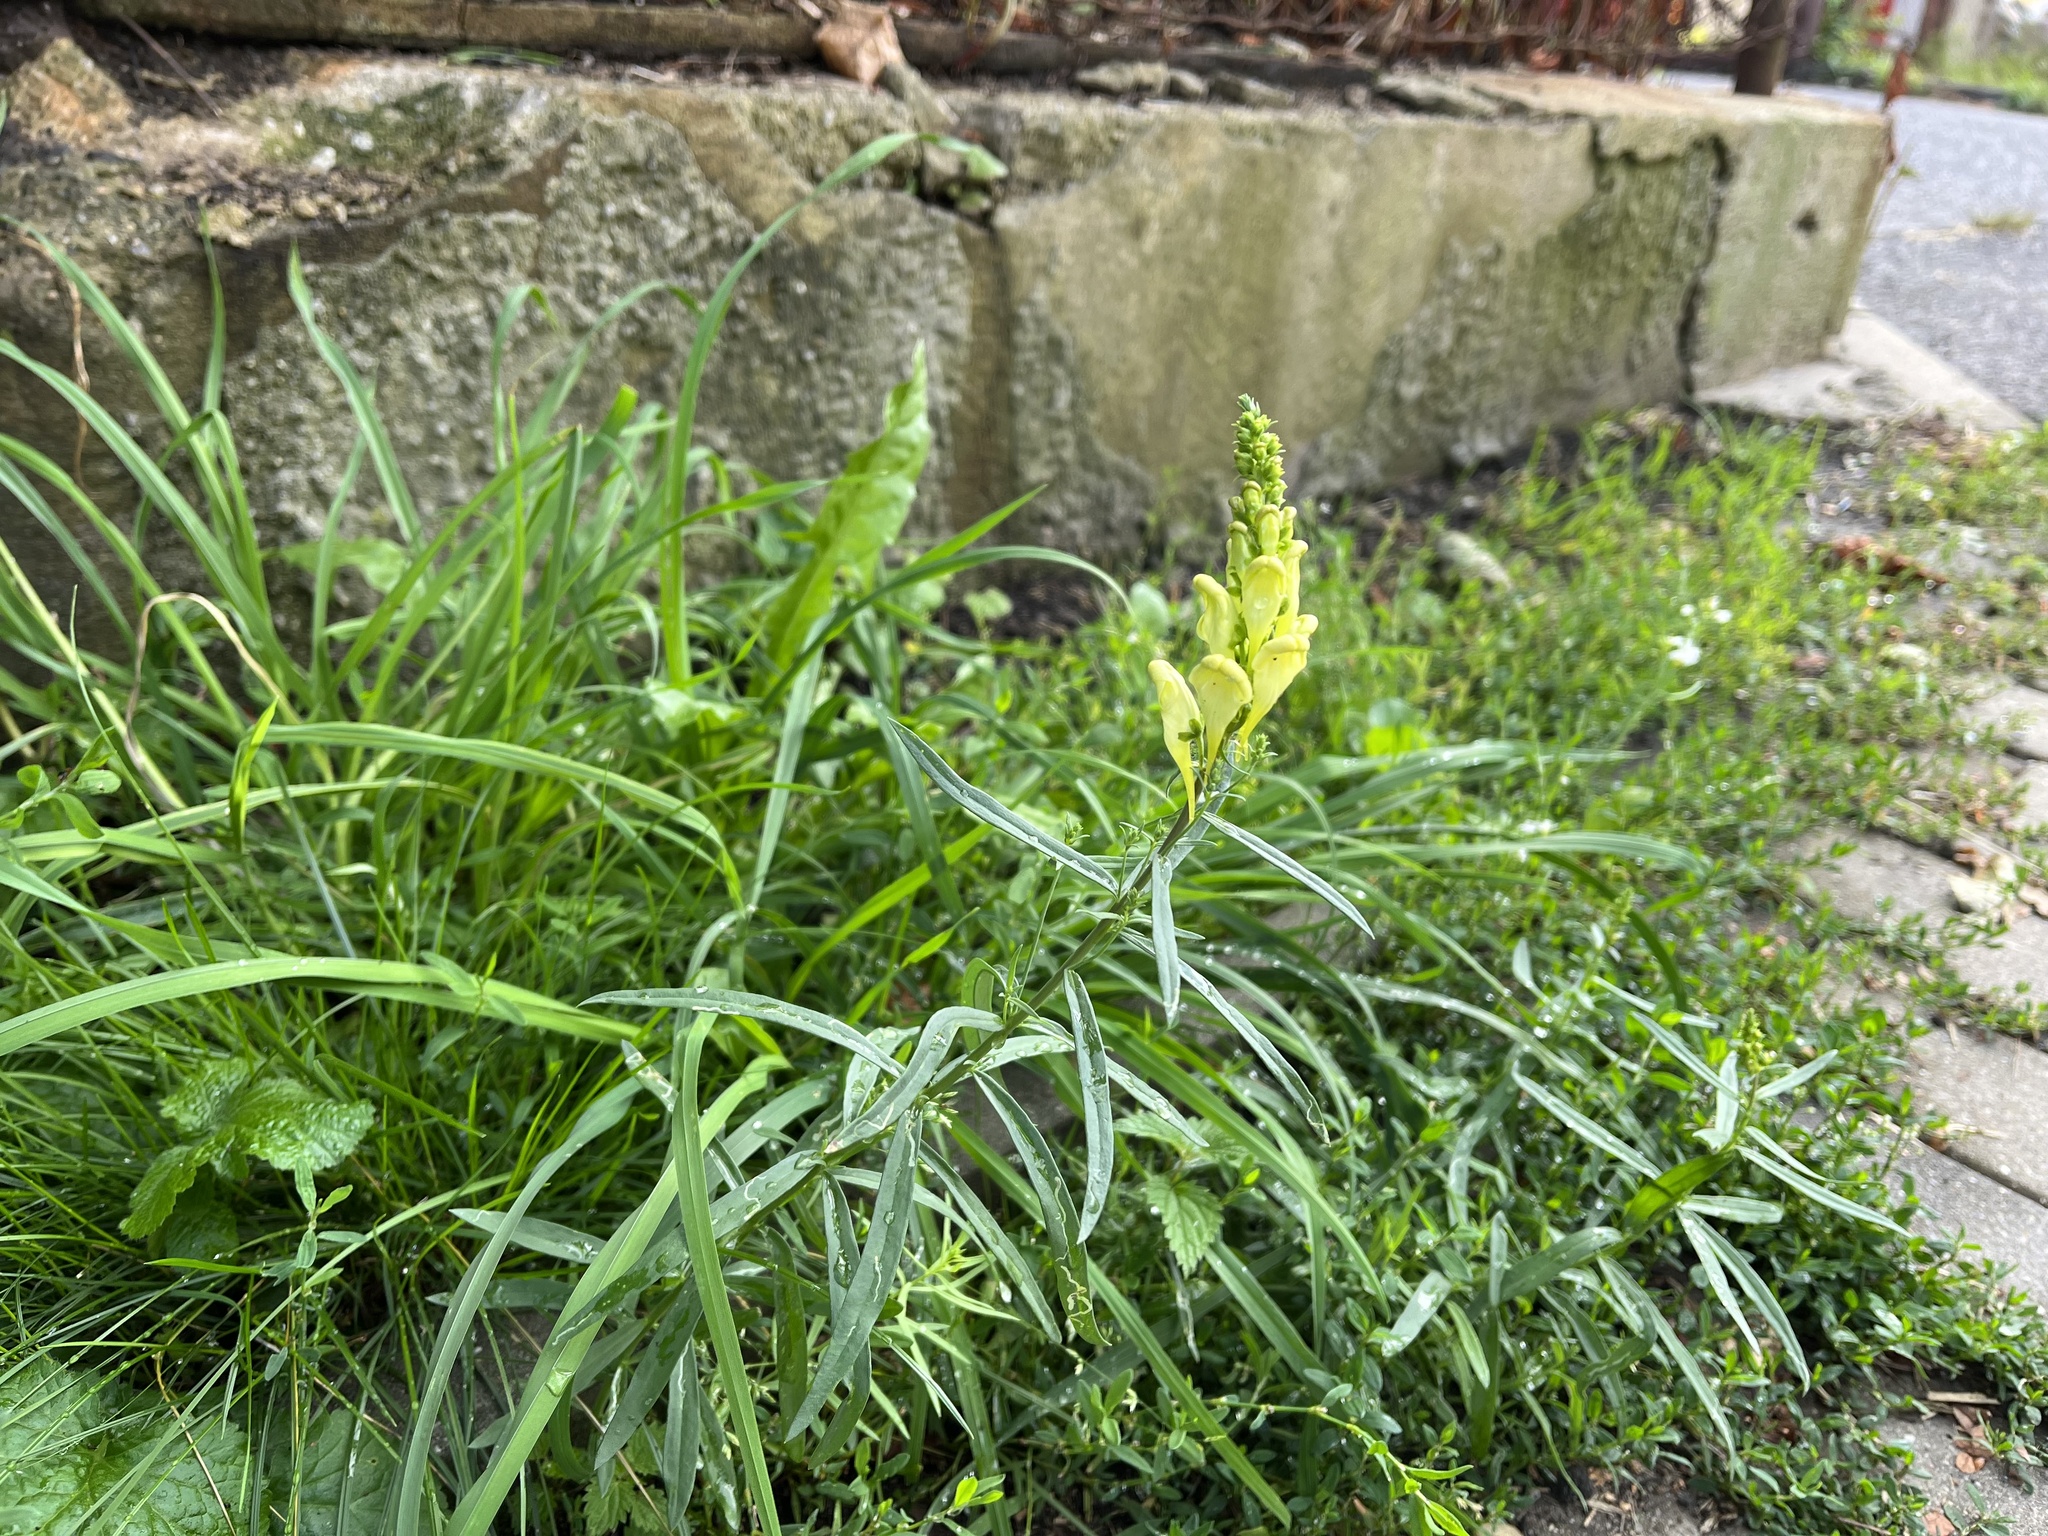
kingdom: Plantae
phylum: Tracheophyta
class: Magnoliopsida
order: Lamiales
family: Plantaginaceae
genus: Linaria
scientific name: Linaria vulgaris
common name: Butter and eggs
